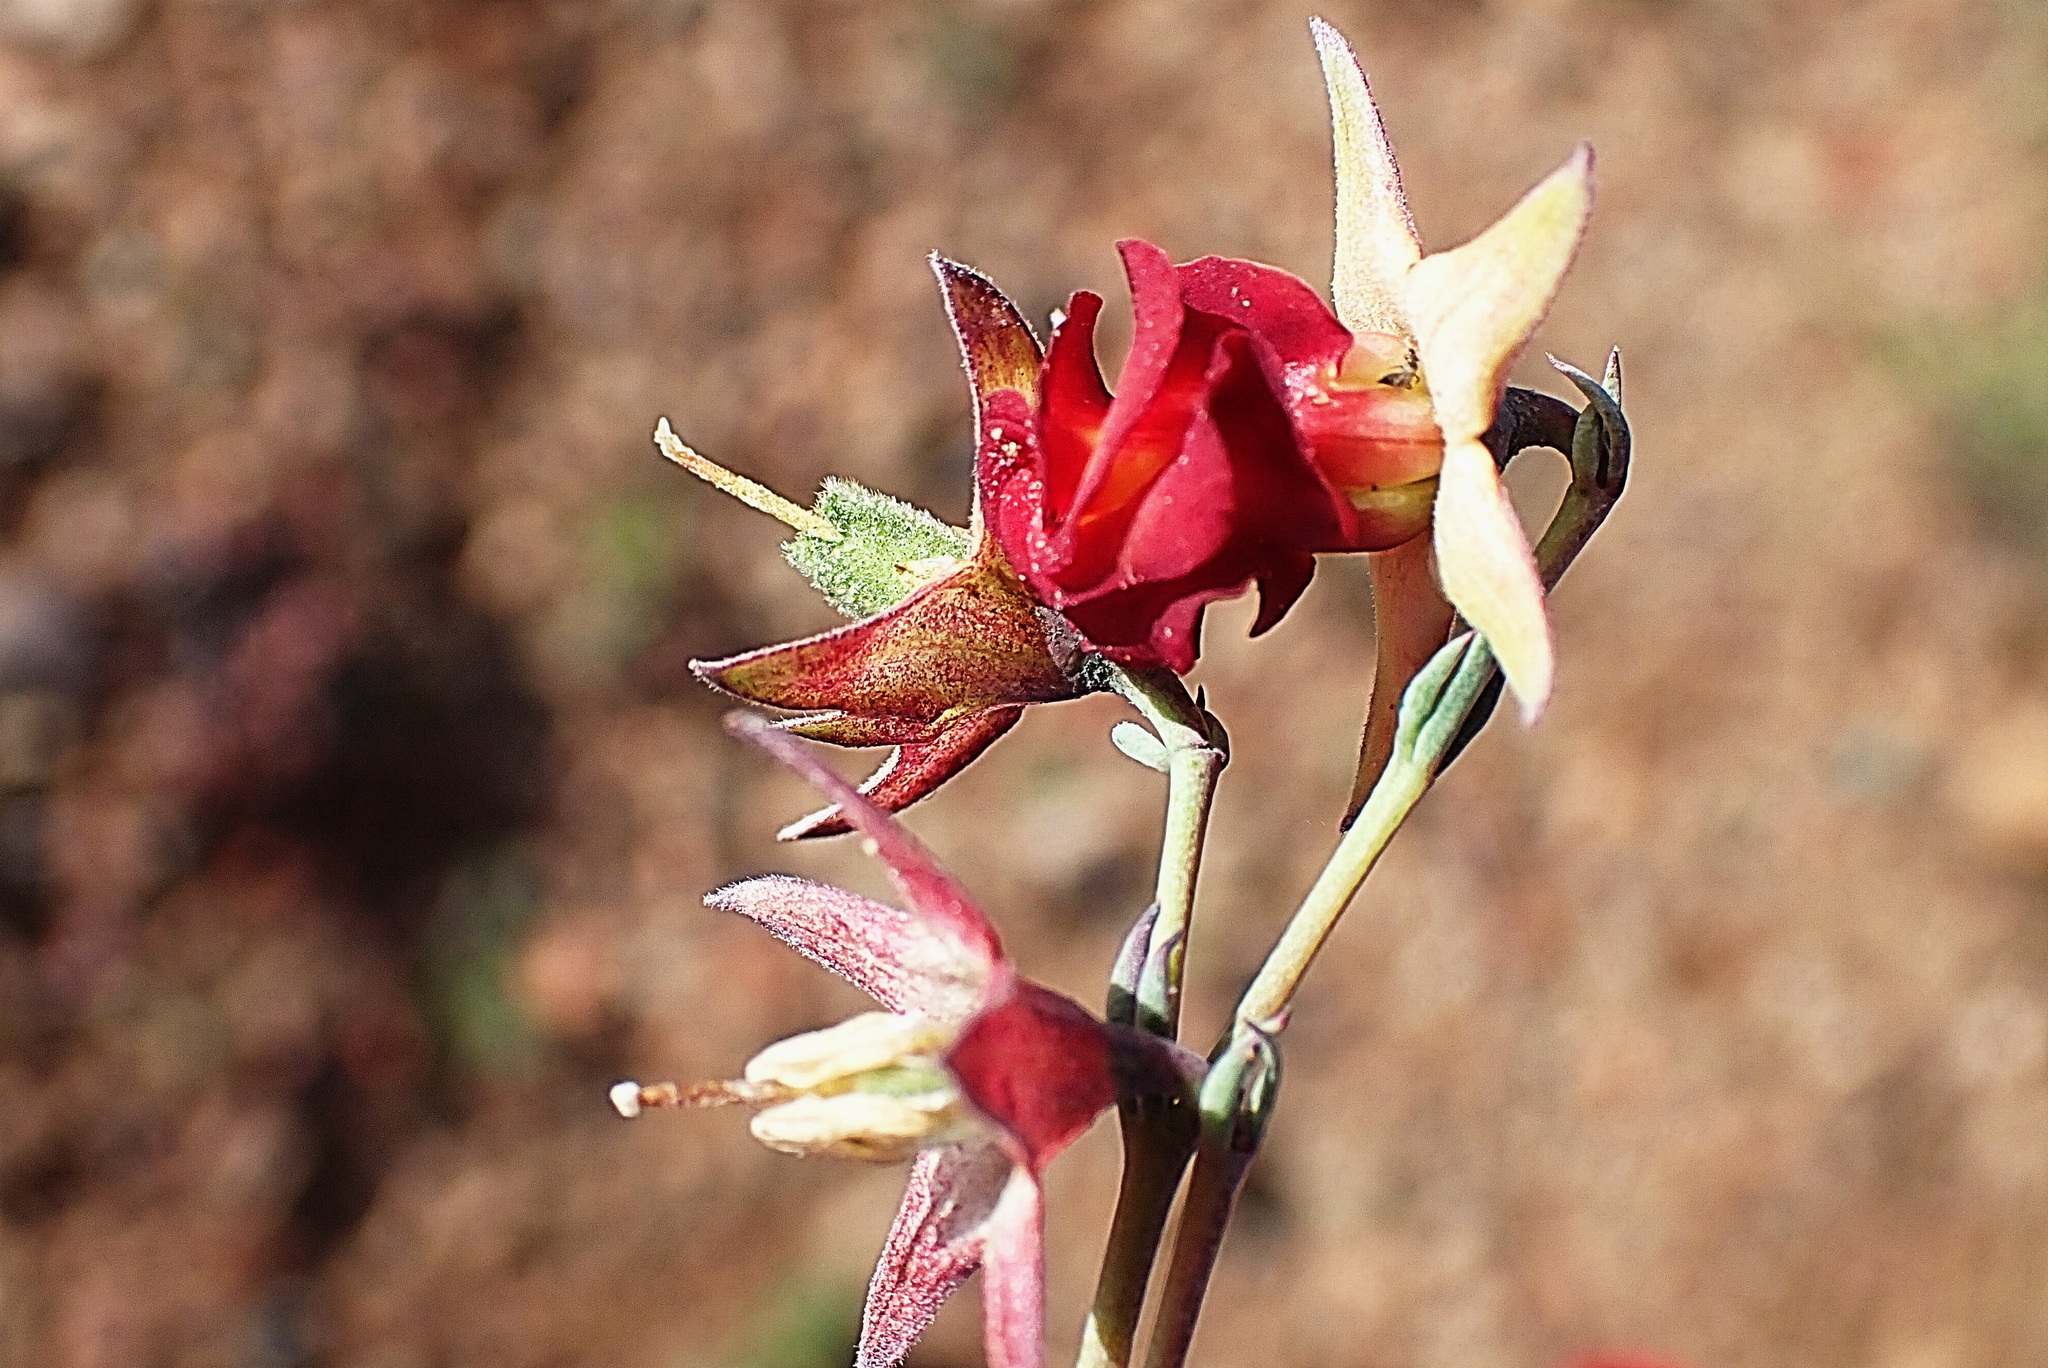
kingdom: Plantae
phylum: Tracheophyta
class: Magnoliopsida
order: Malvales
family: Malvaceae
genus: Hermannia
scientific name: Hermannia filifolia
